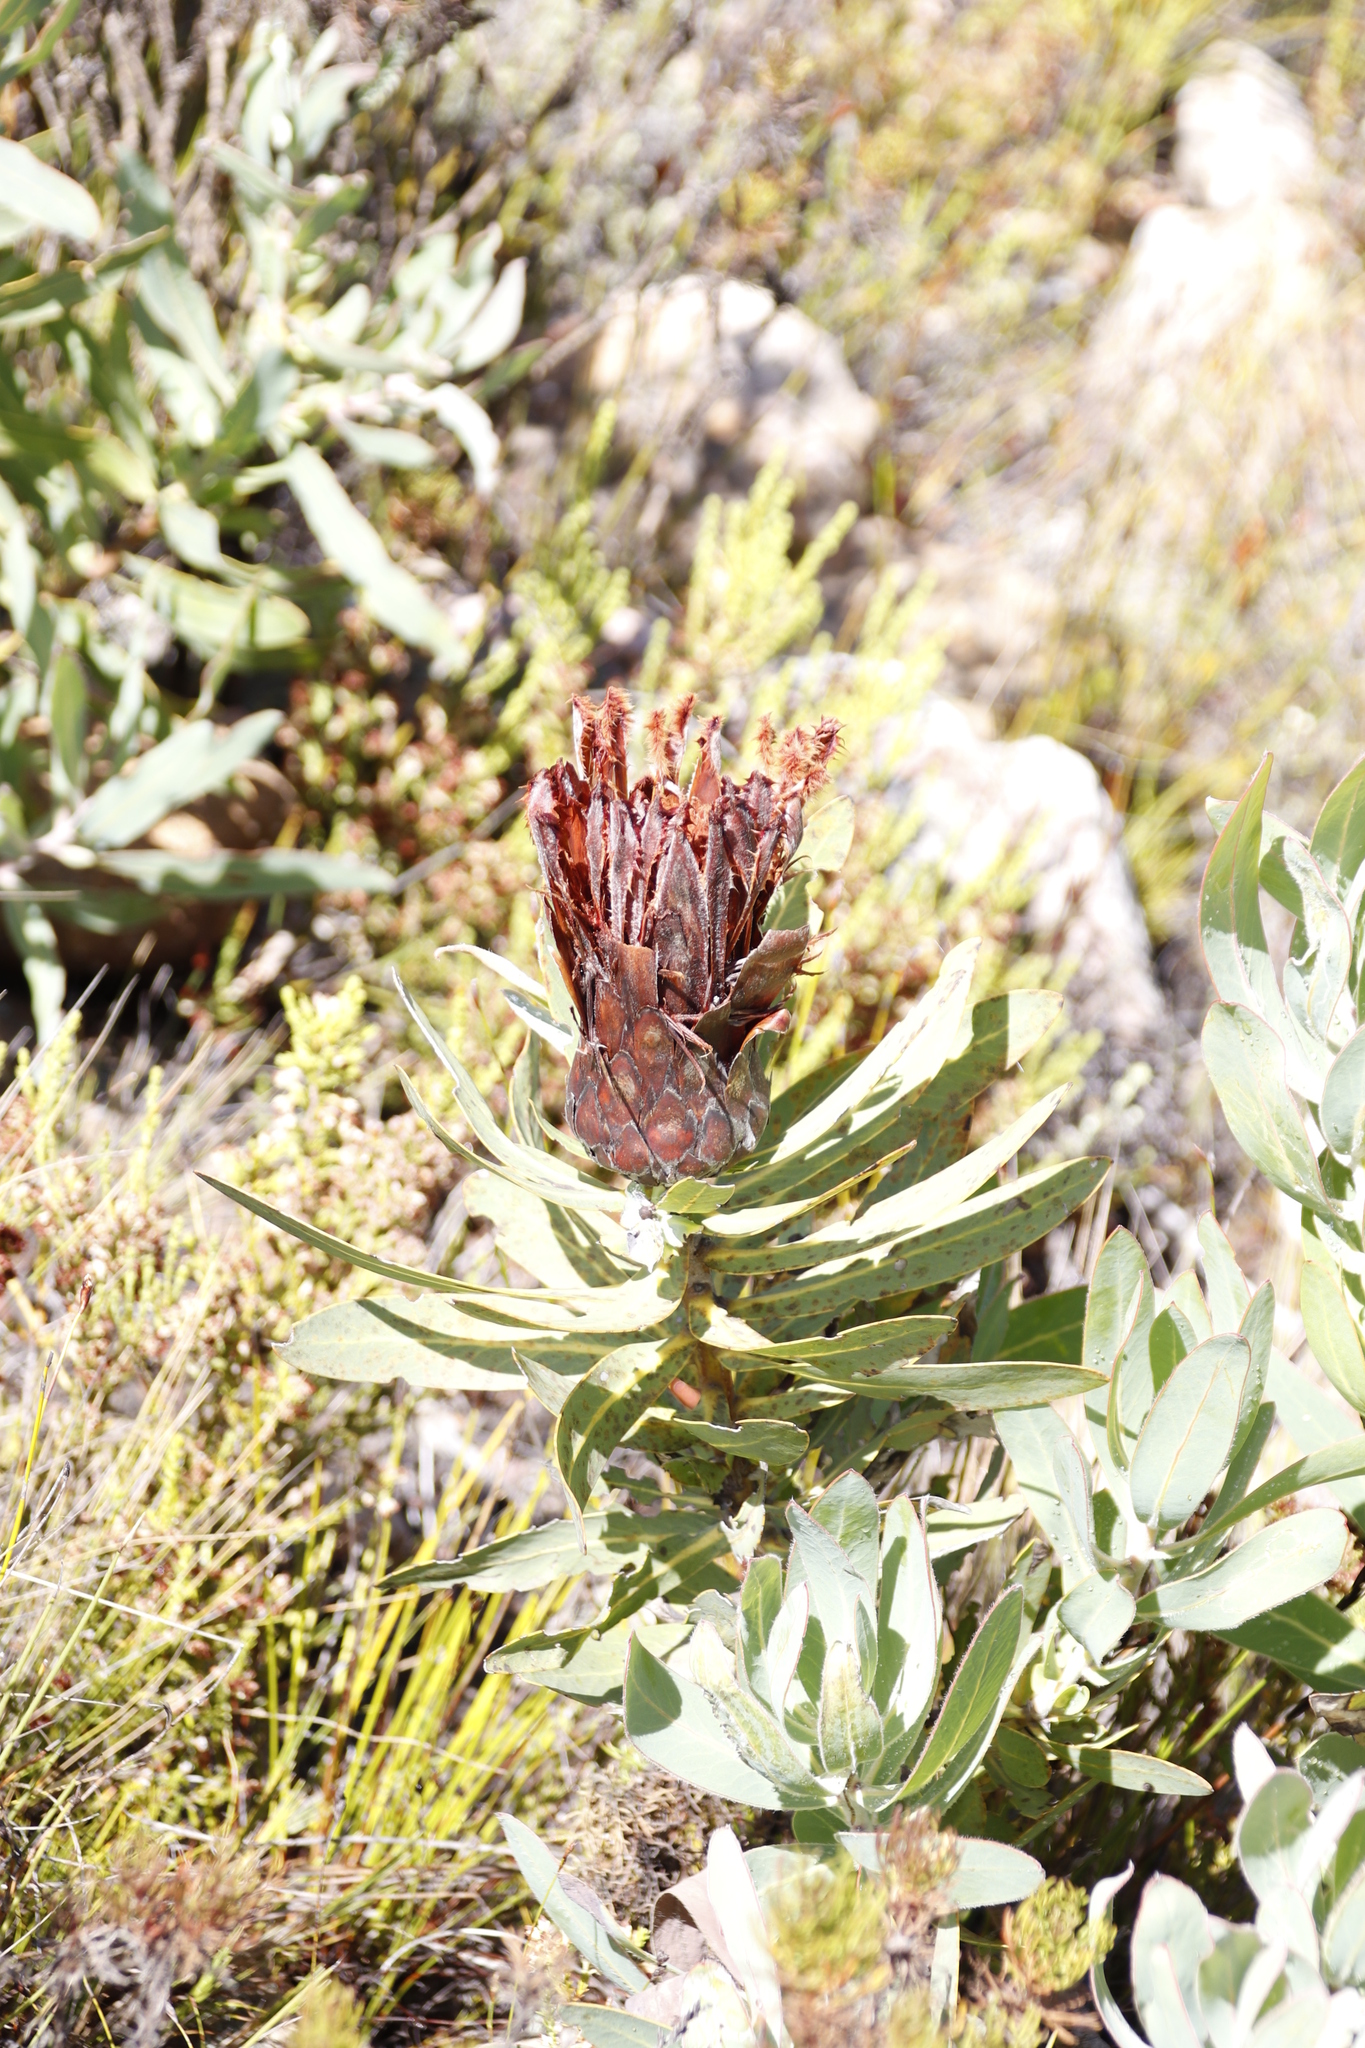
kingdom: Plantae
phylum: Tracheophyta
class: Magnoliopsida
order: Proteales
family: Proteaceae
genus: Protea
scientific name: Protea magnifica
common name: Bearded sugarbush
